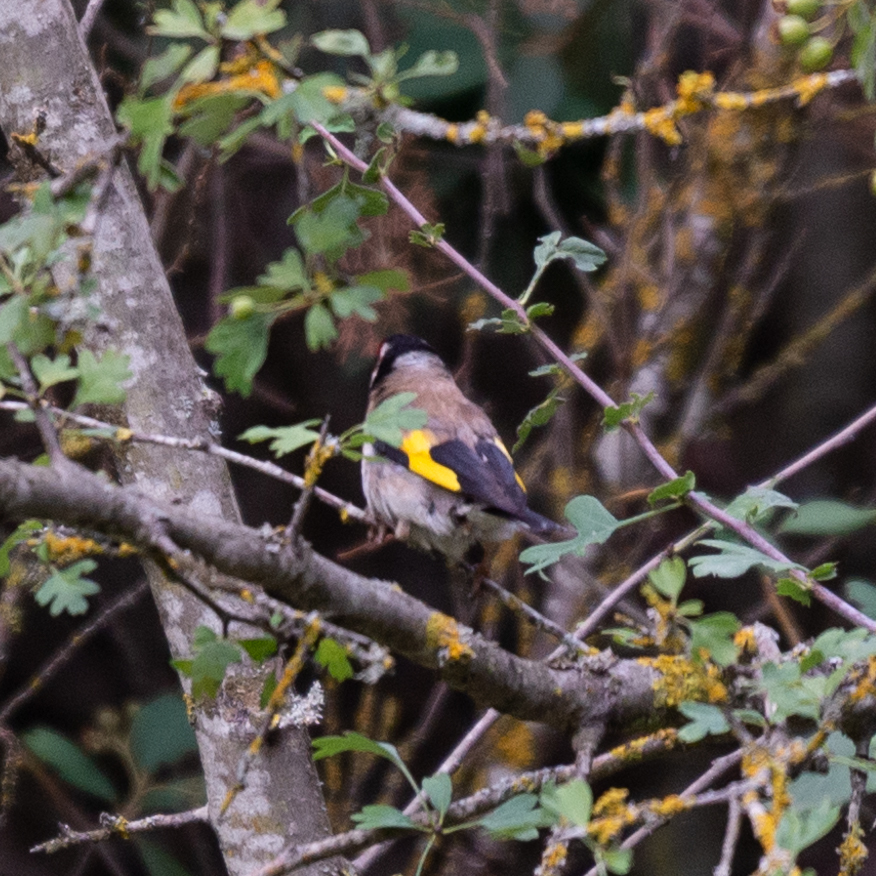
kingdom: Animalia
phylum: Chordata
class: Aves
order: Passeriformes
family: Fringillidae
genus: Carduelis
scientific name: Carduelis carduelis
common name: European goldfinch
